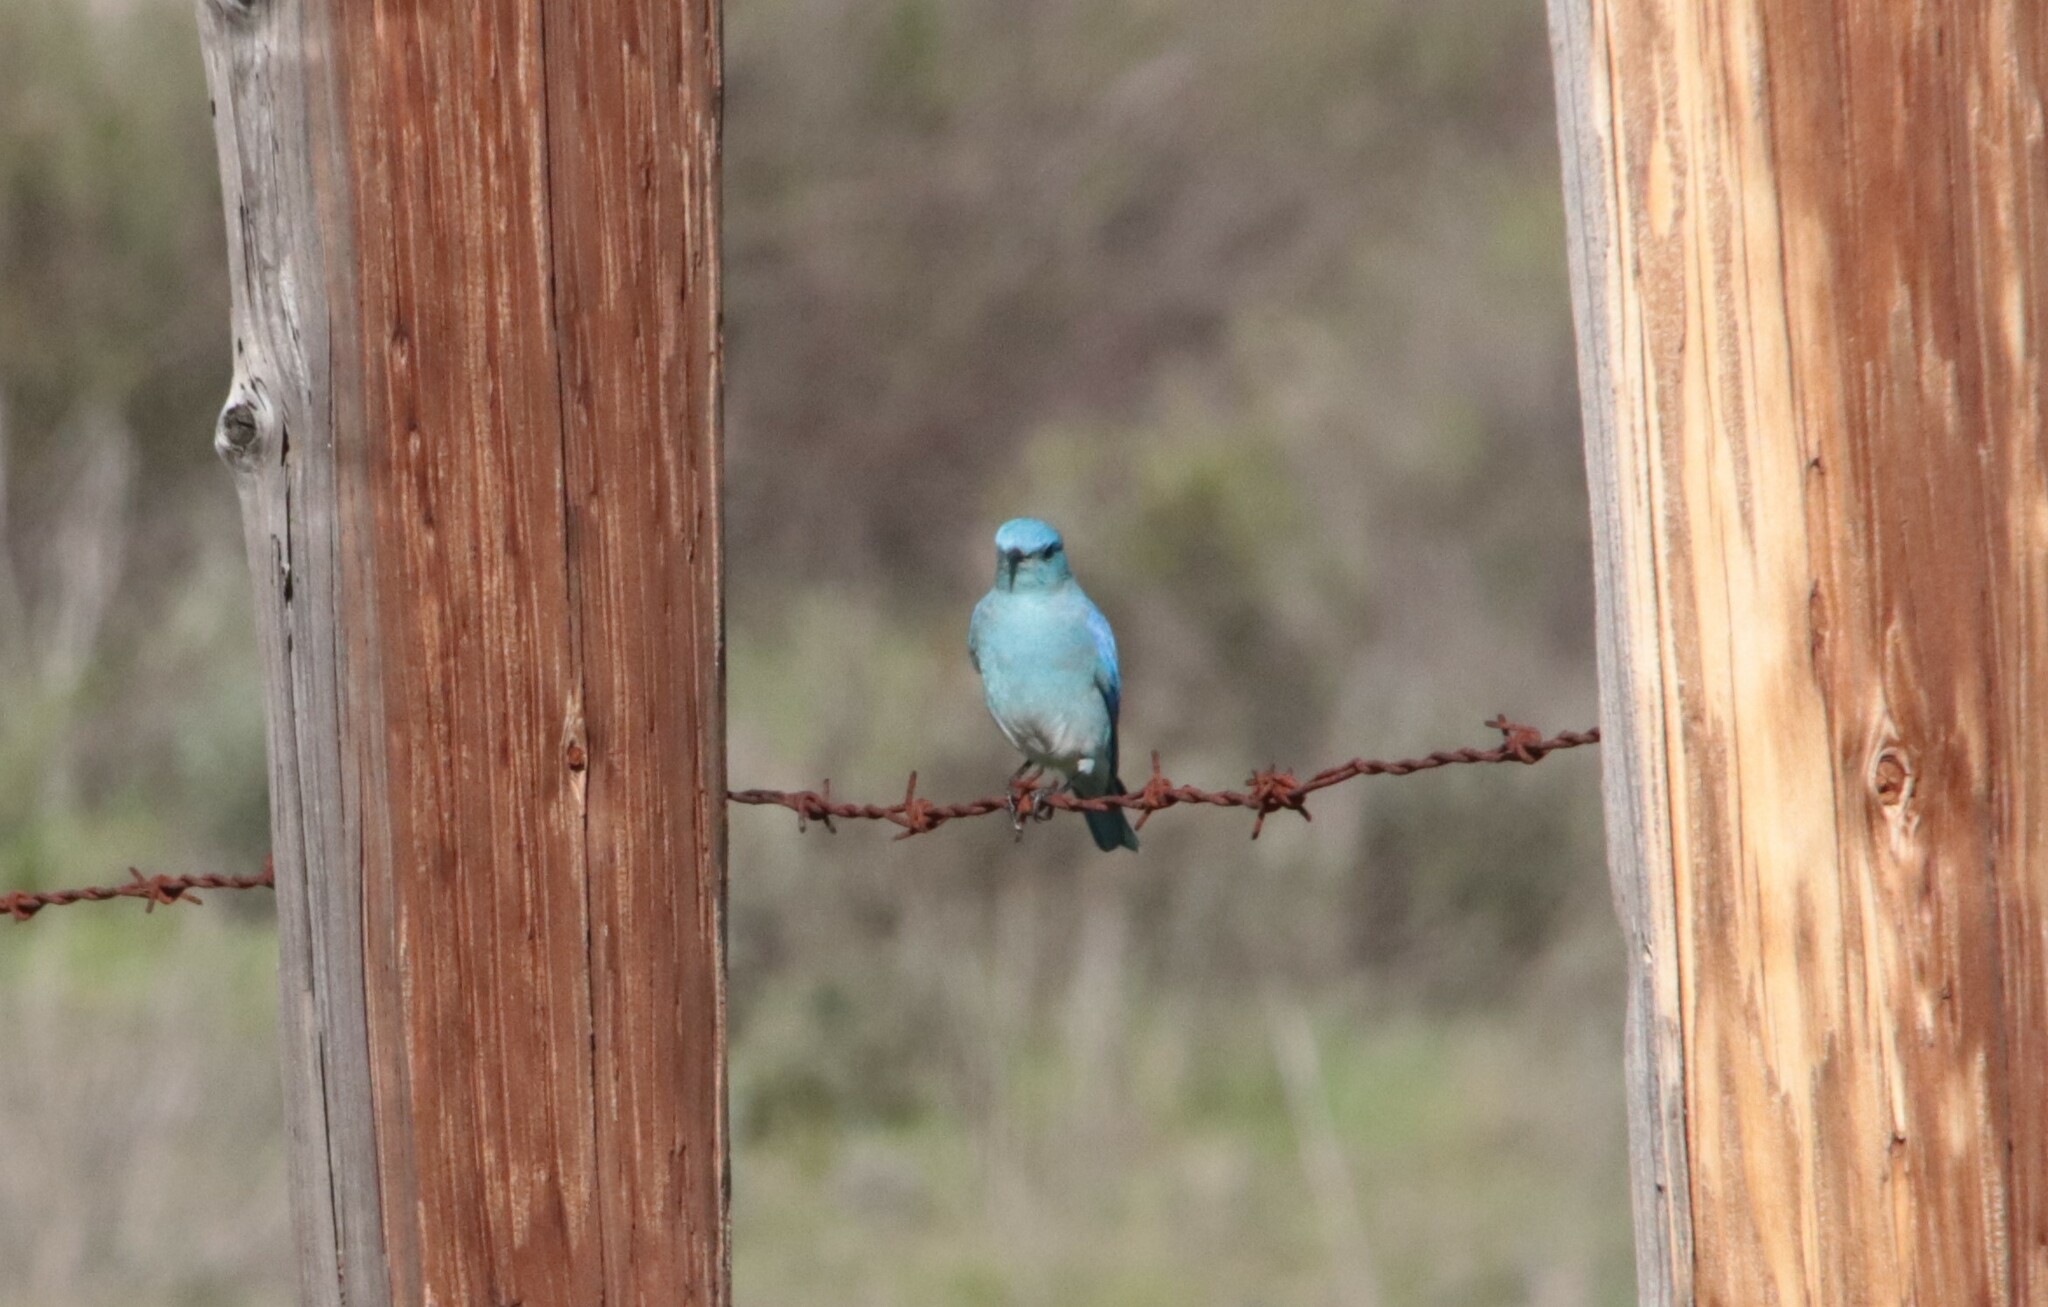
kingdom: Animalia
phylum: Chordata
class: Aves
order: Passeriformes
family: Turdidae
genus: Sialia
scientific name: Sialia currucoides
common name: Mountain bluebird
